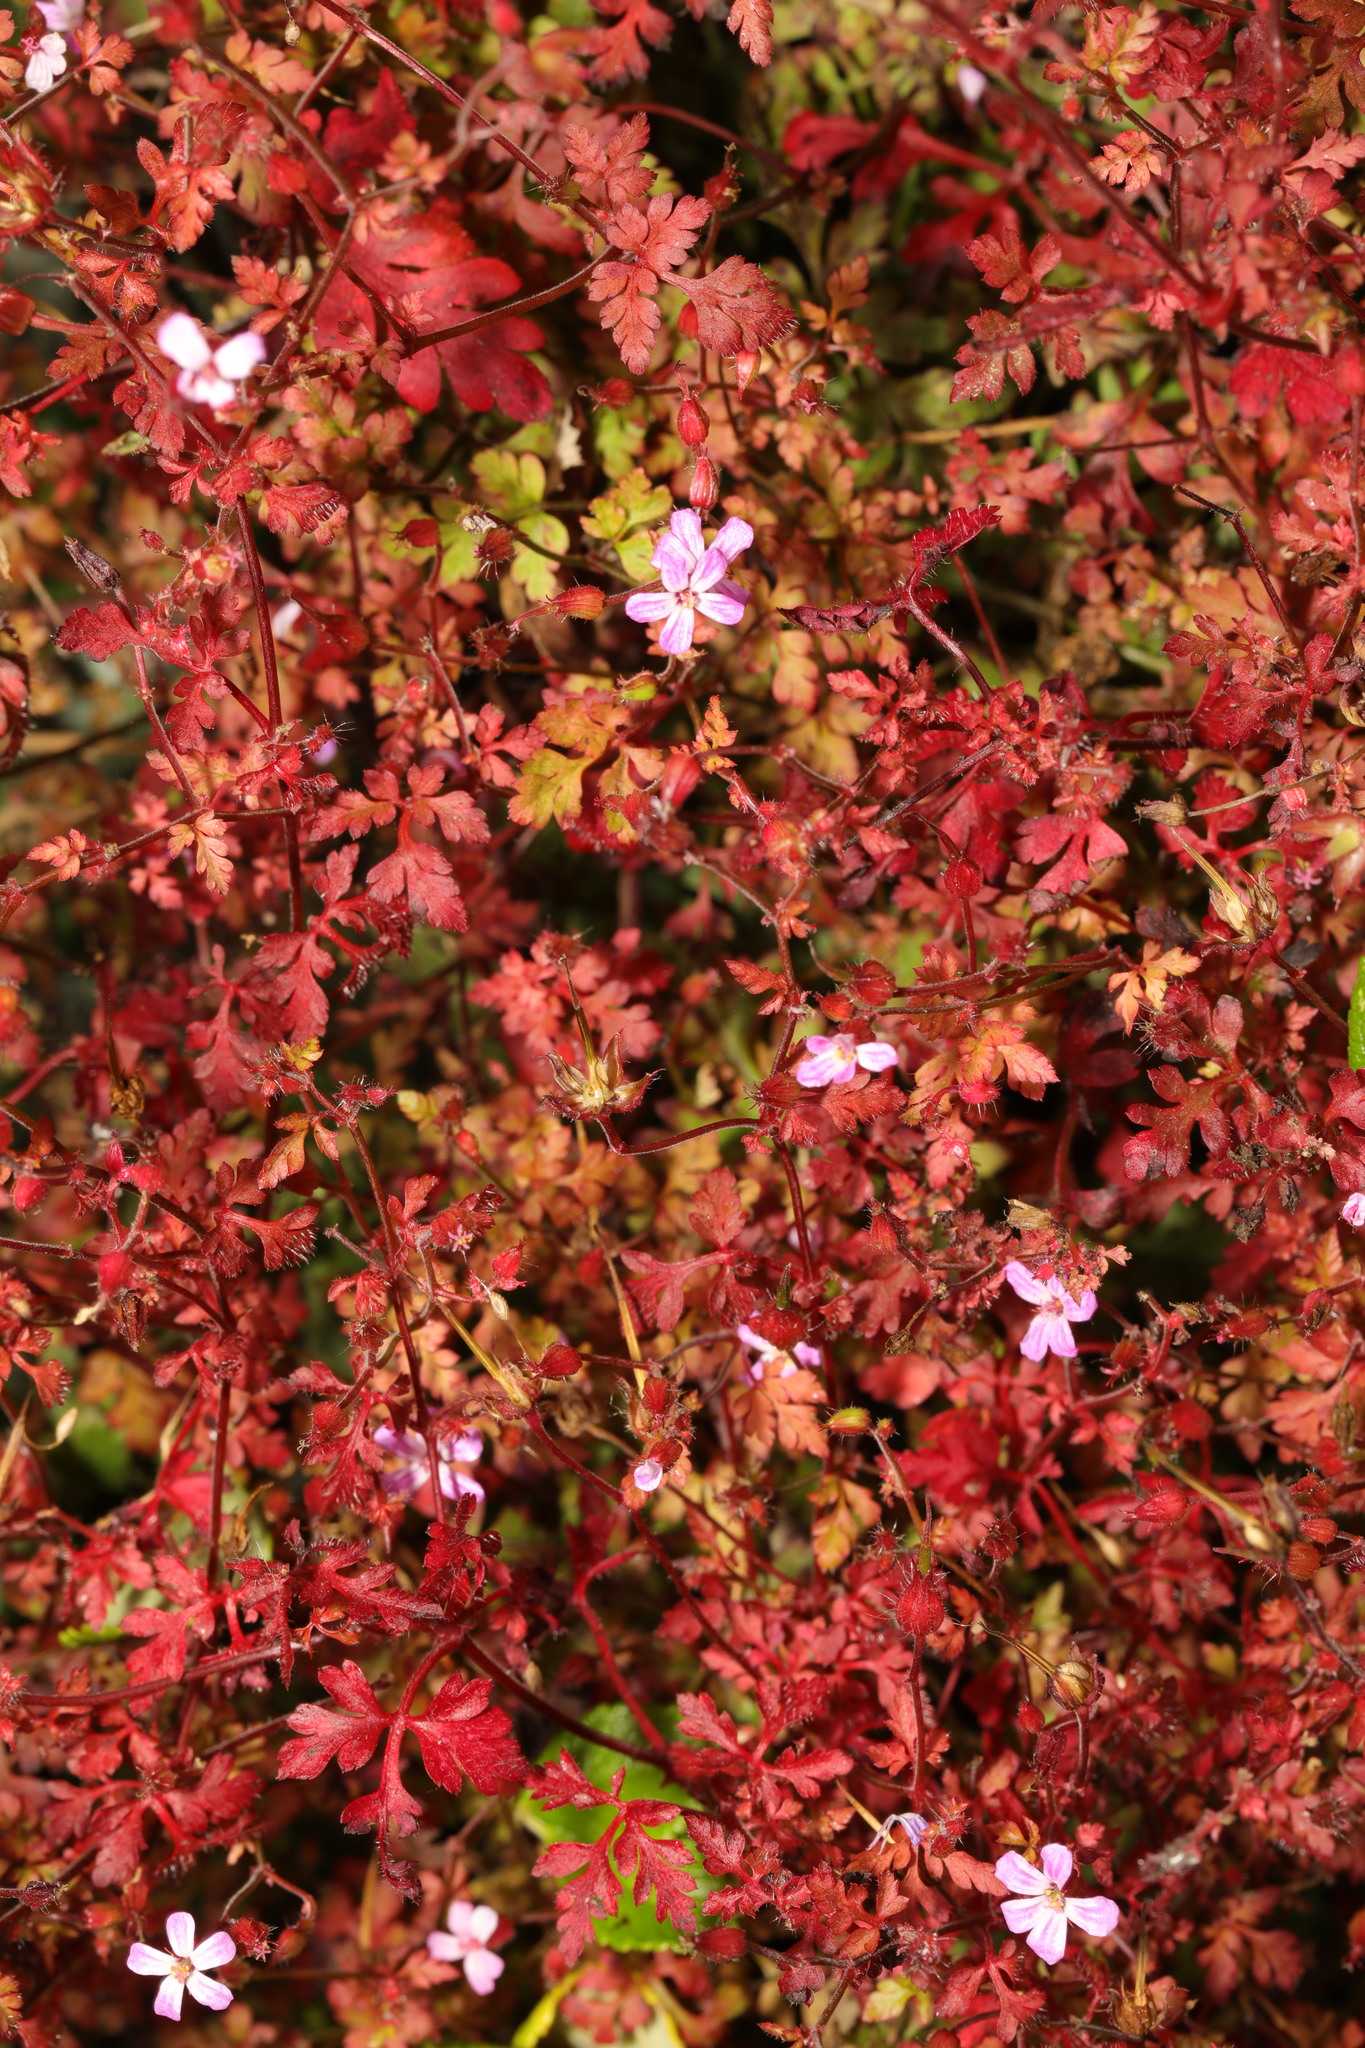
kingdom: Plantae
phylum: Tracheophyta
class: Magnoliopsida
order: Geraniales
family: Geraniaceae
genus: Geranium
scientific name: Geranium robertianum
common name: Herb-robert
